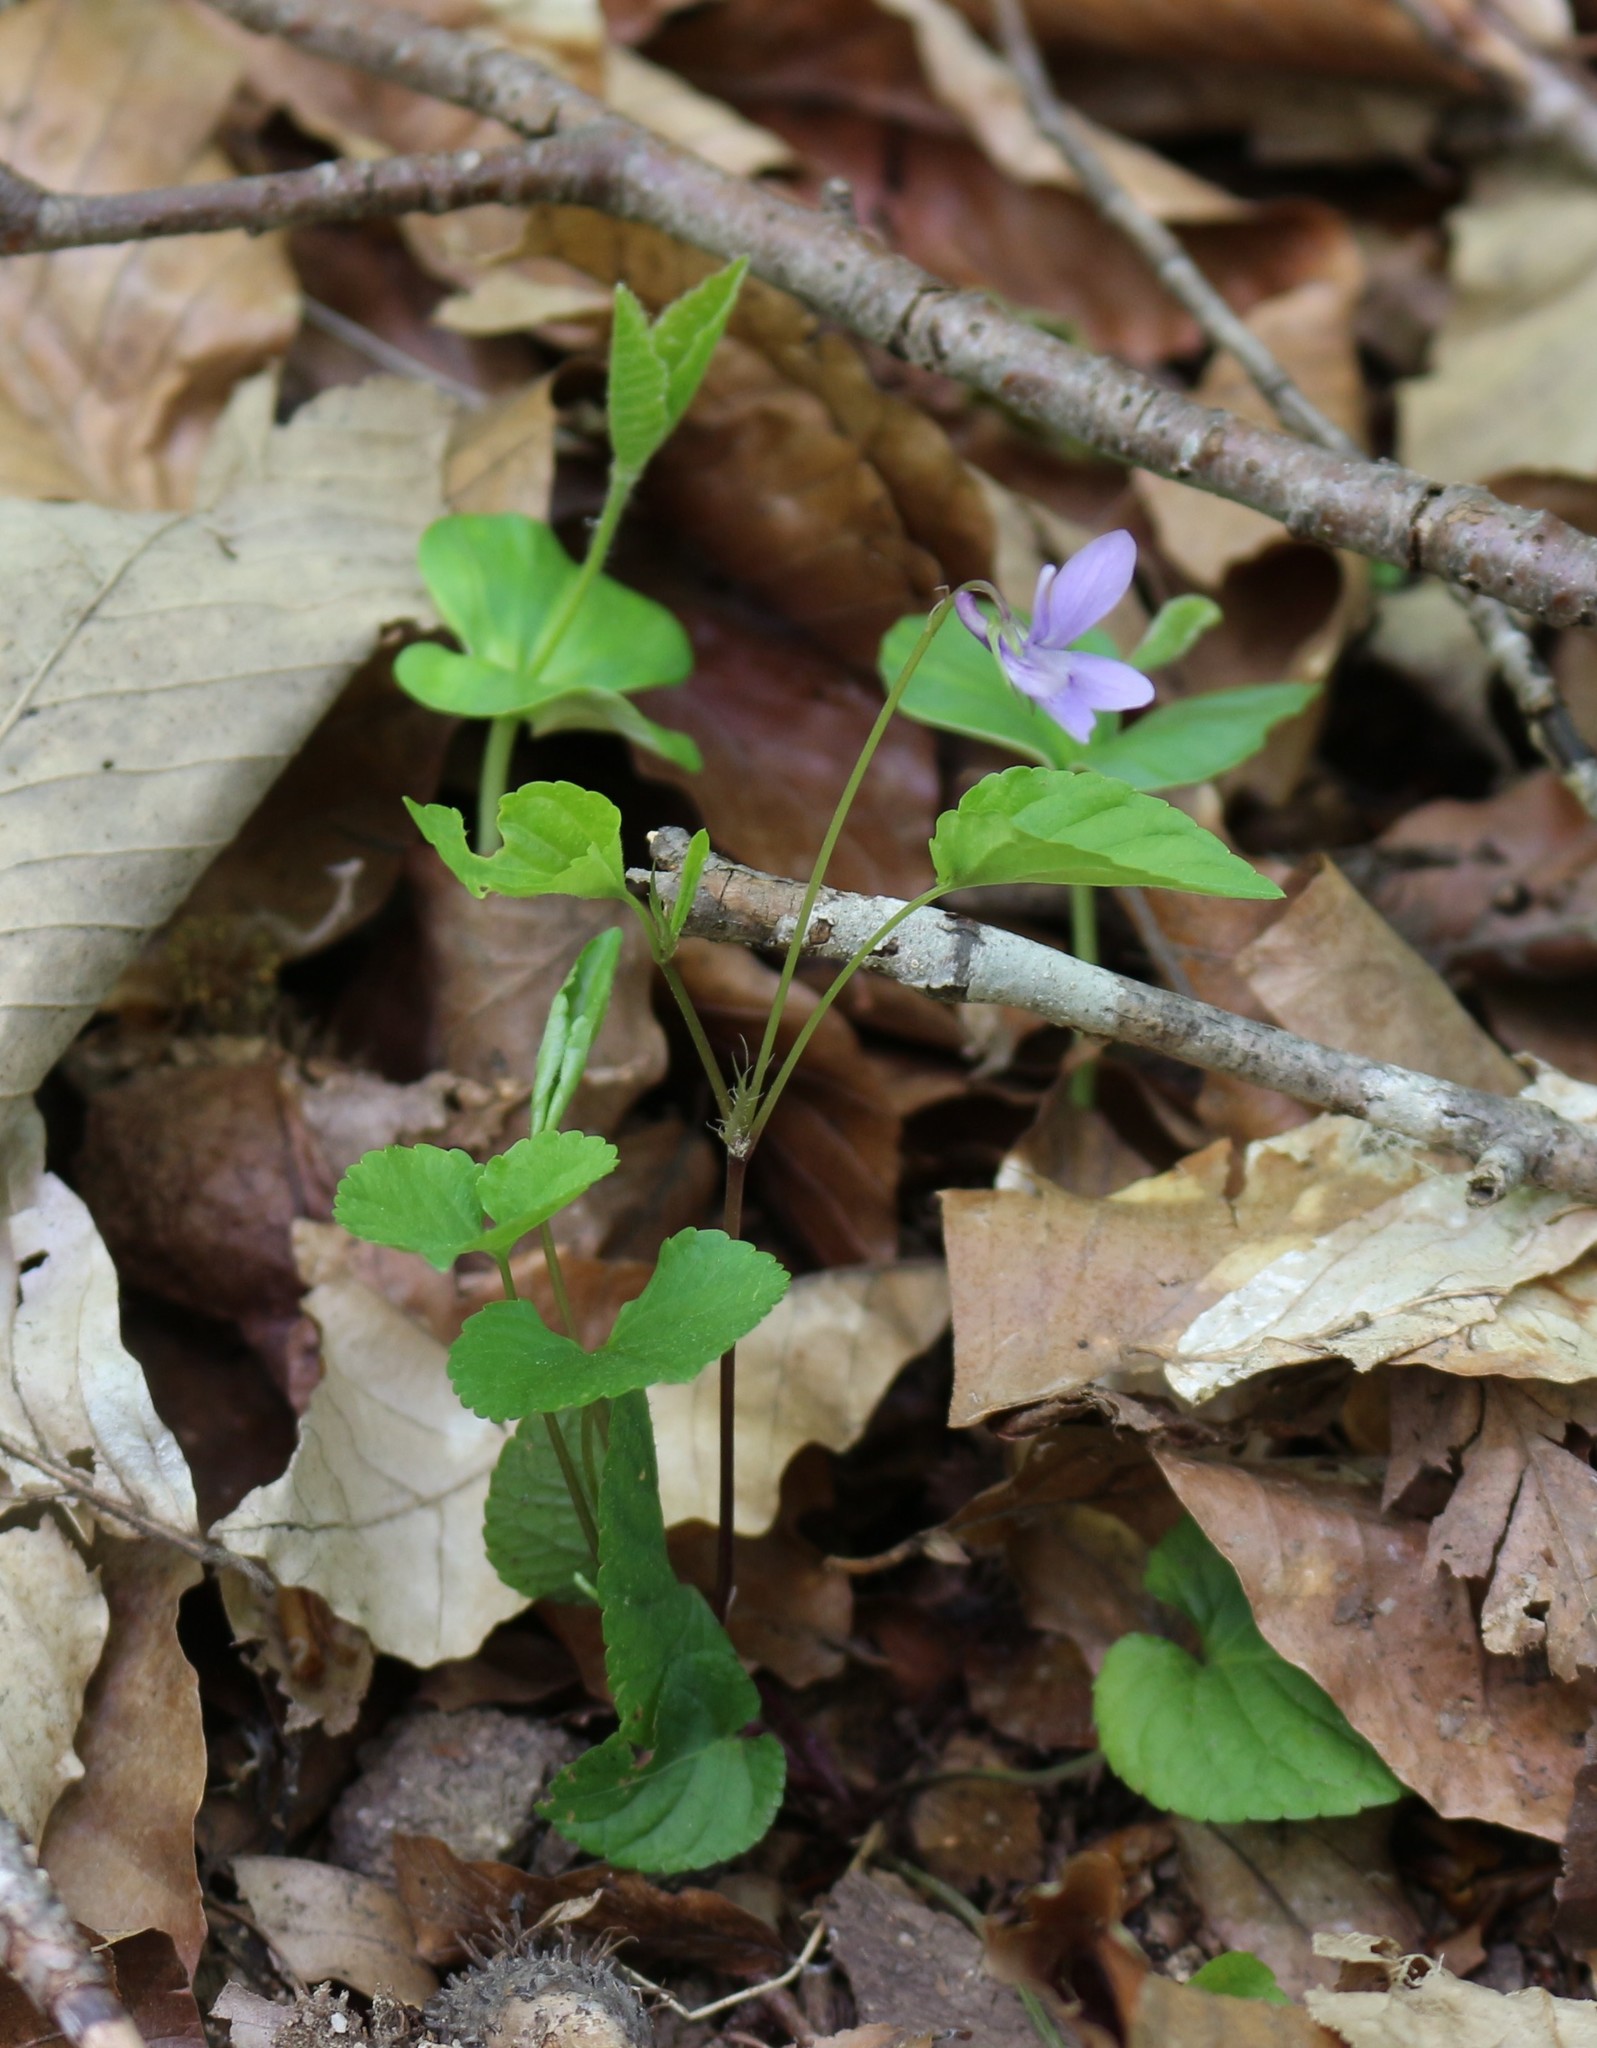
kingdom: Plantae
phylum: Tracheophyta
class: Magnoliopsida
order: Malpighiales
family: Violaceae
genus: Viola
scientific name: Viola reichenbachiana
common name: Early dog-violet
